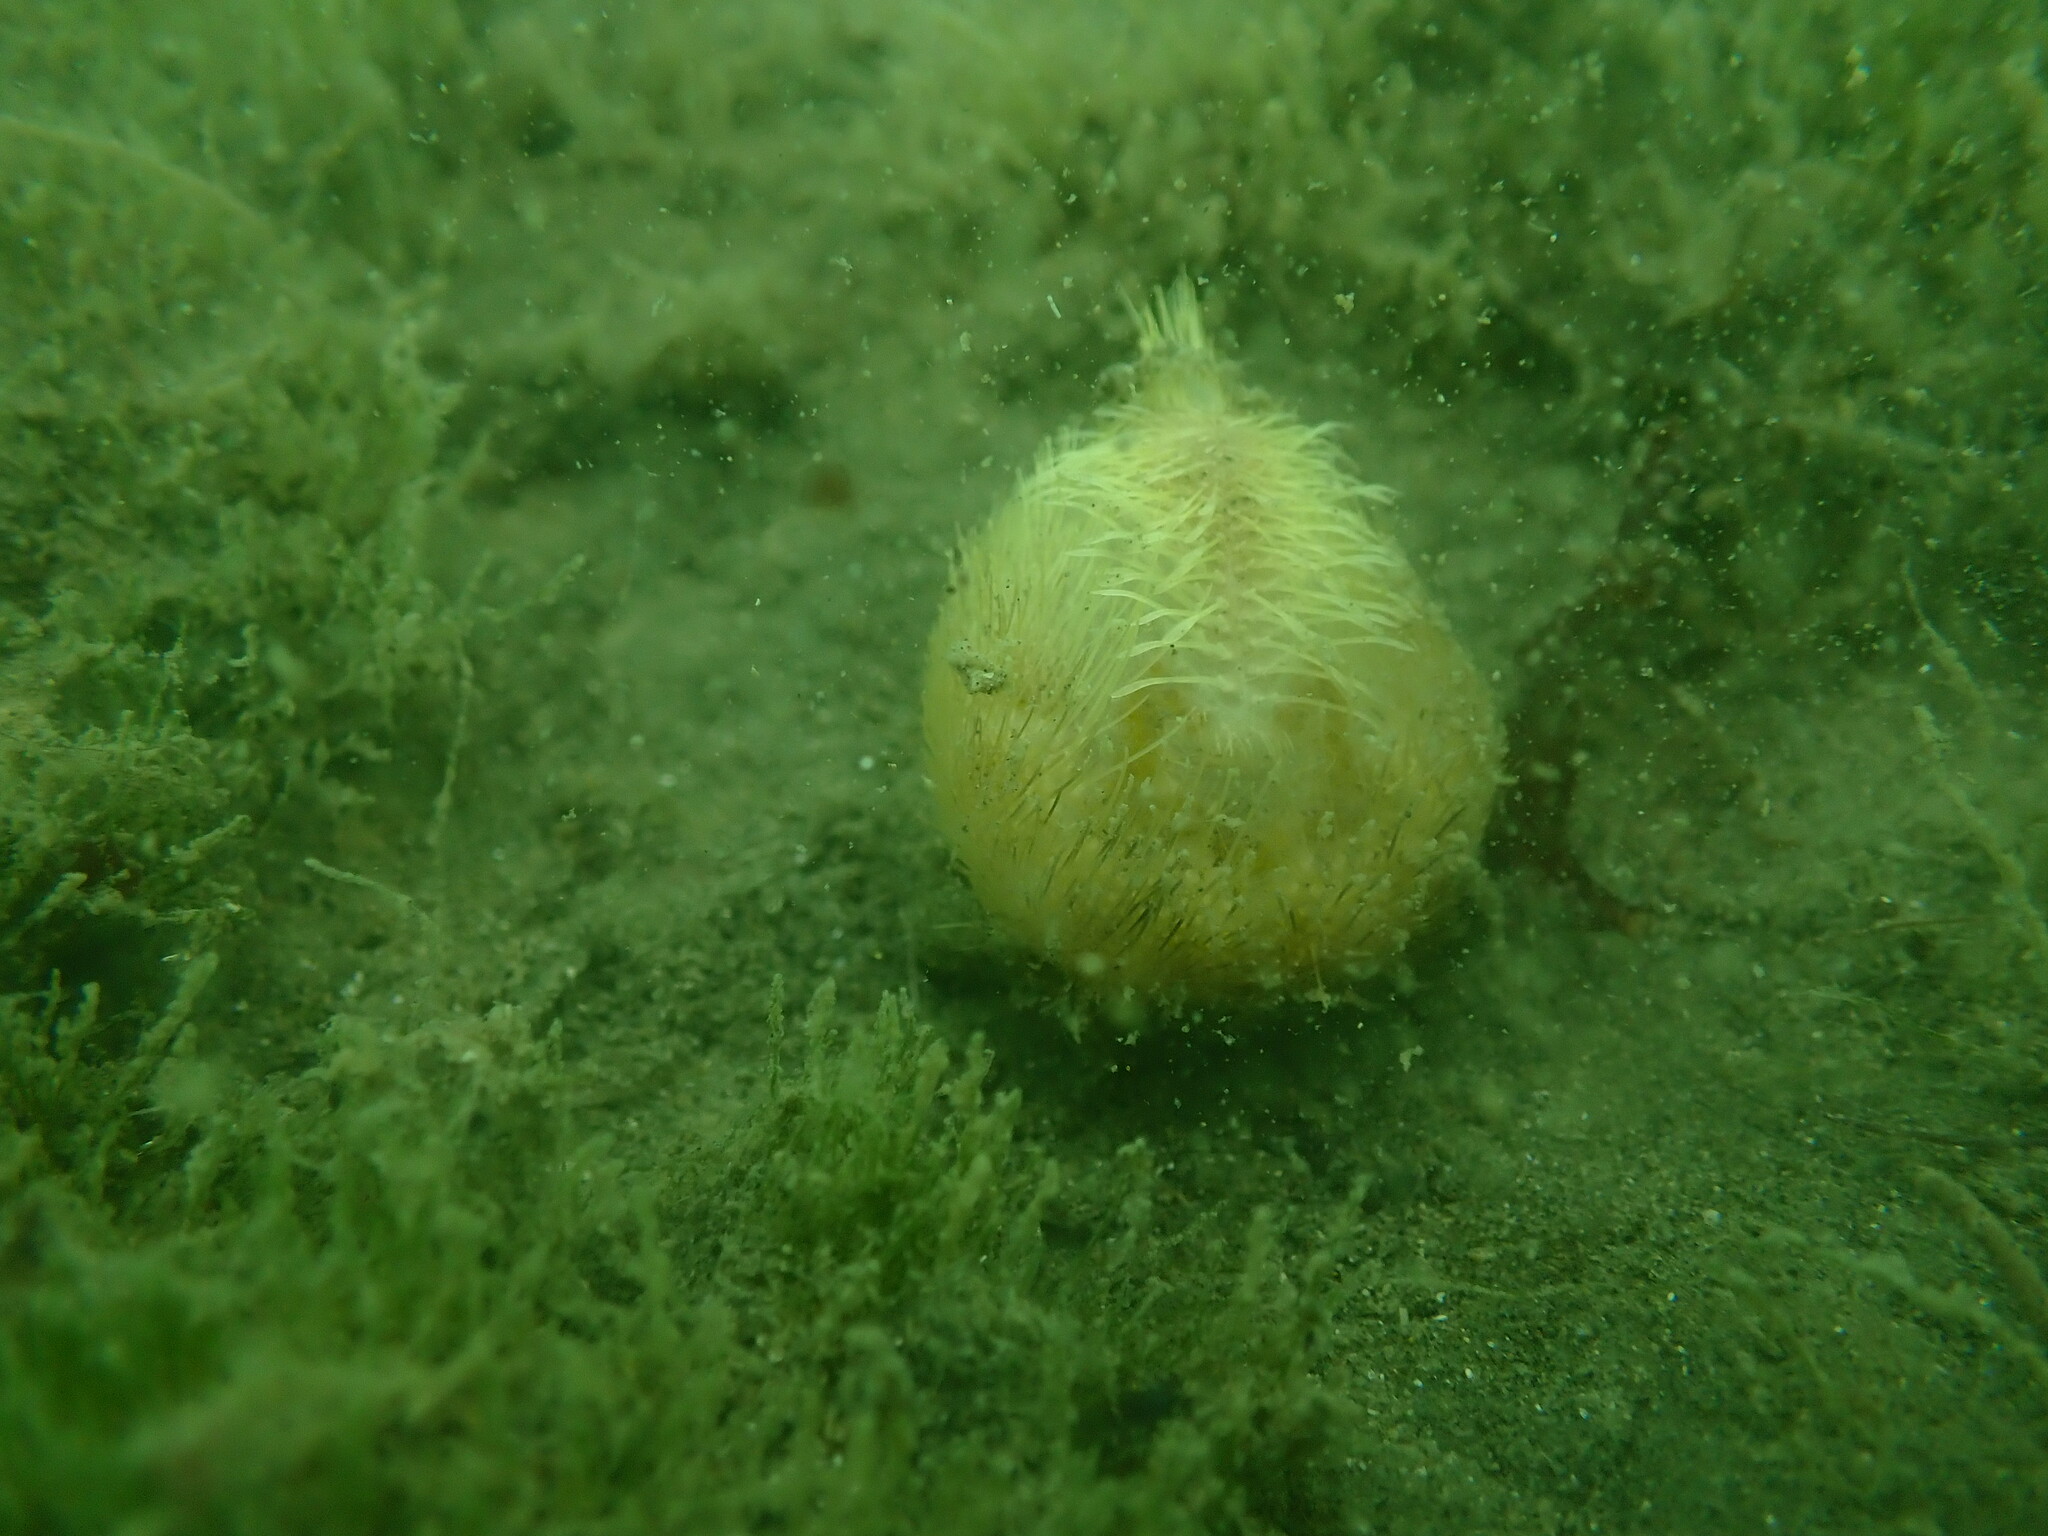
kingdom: Animalia
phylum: Echinodermata
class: Echinoidea
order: Spatangoida
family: Loveniidae
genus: Echinocardium
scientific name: Echinocardium cordatum
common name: Heart-urchin
